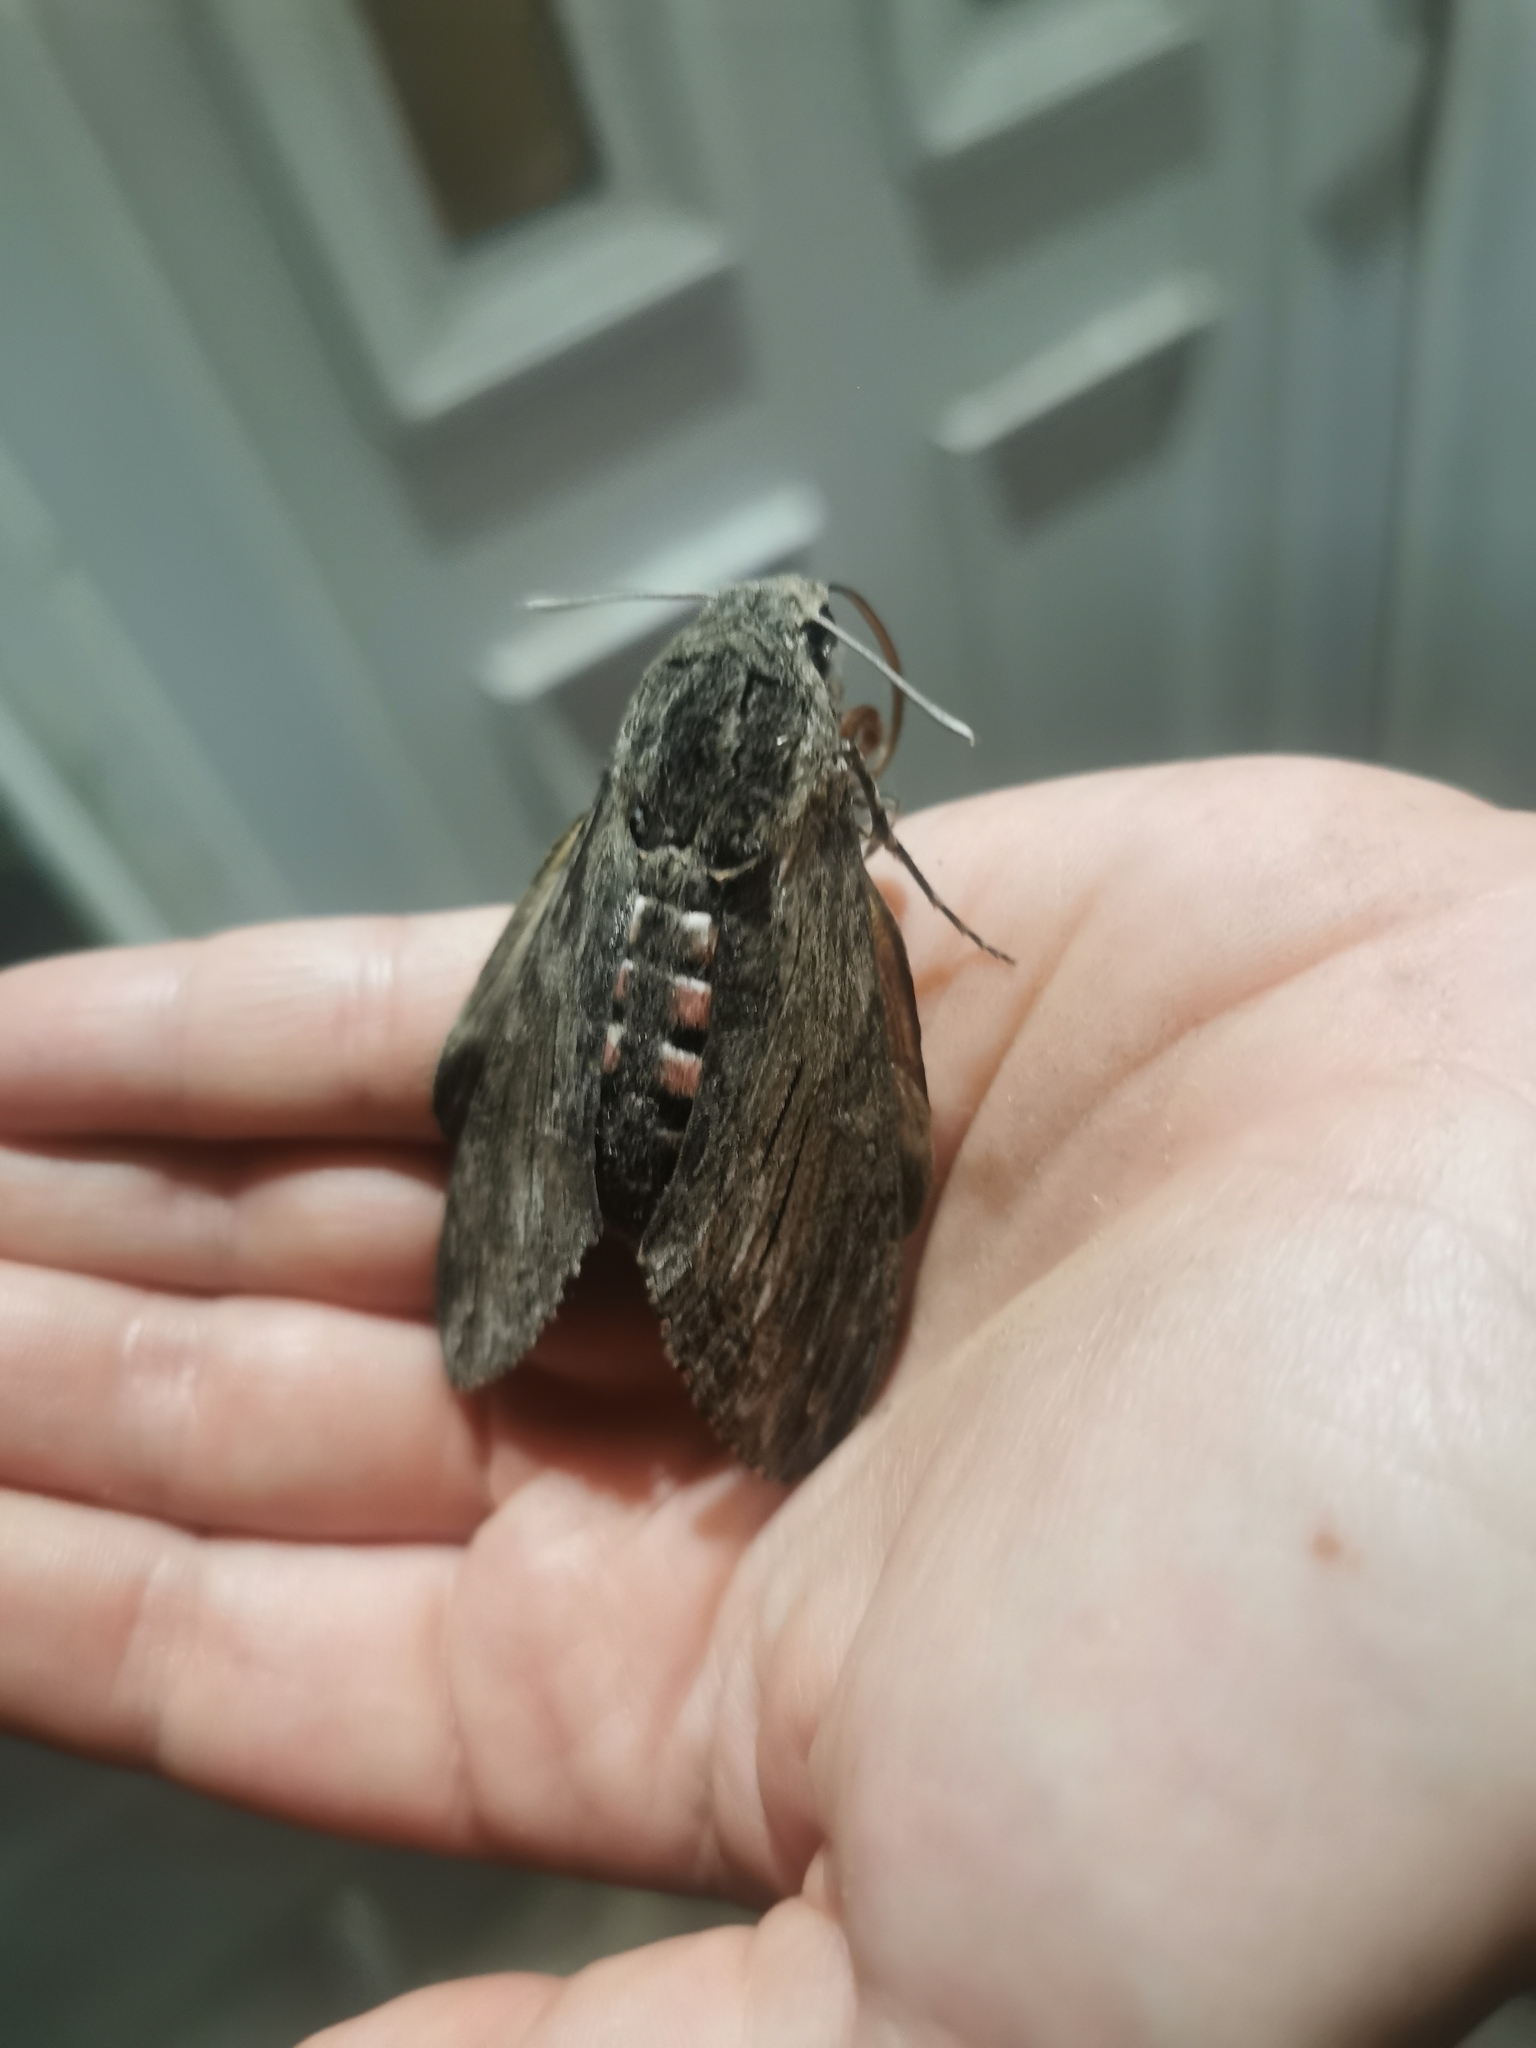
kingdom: Animalia
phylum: Arthropoda
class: Insecta
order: Lepidoptera
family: Sphingidae
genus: Agrius
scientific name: Agrius convolvuli
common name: Convolvulus hawkmoth
